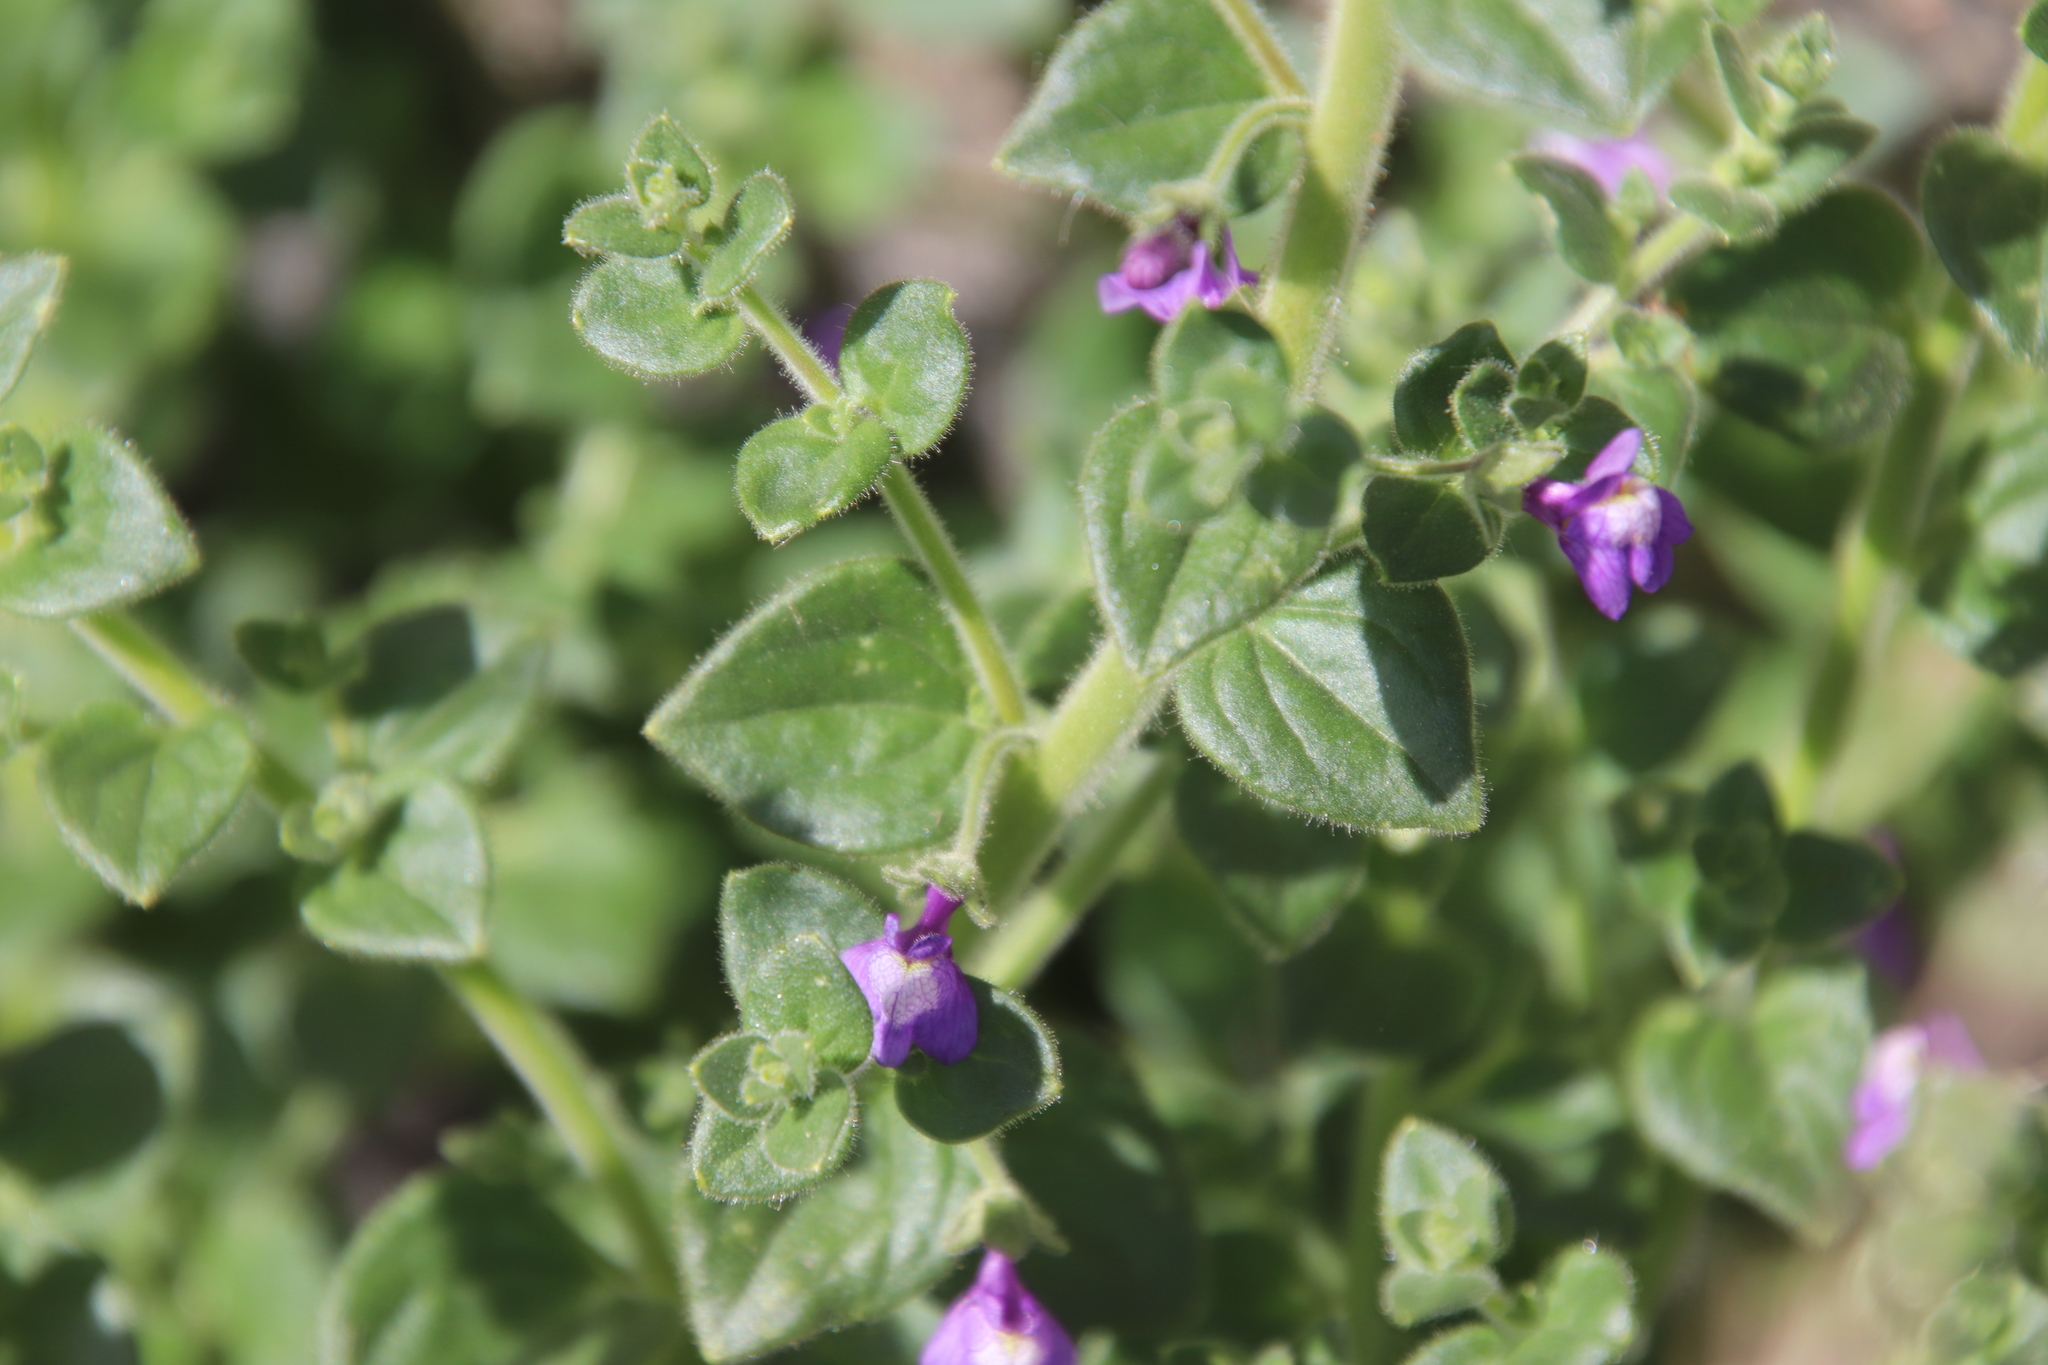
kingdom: Plantae
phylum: Tracheophyta
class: Magnoliopsida
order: Lamiales
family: Plantaginaceae
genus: Sairocarpus
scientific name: Sairocarpus nuttallianus
